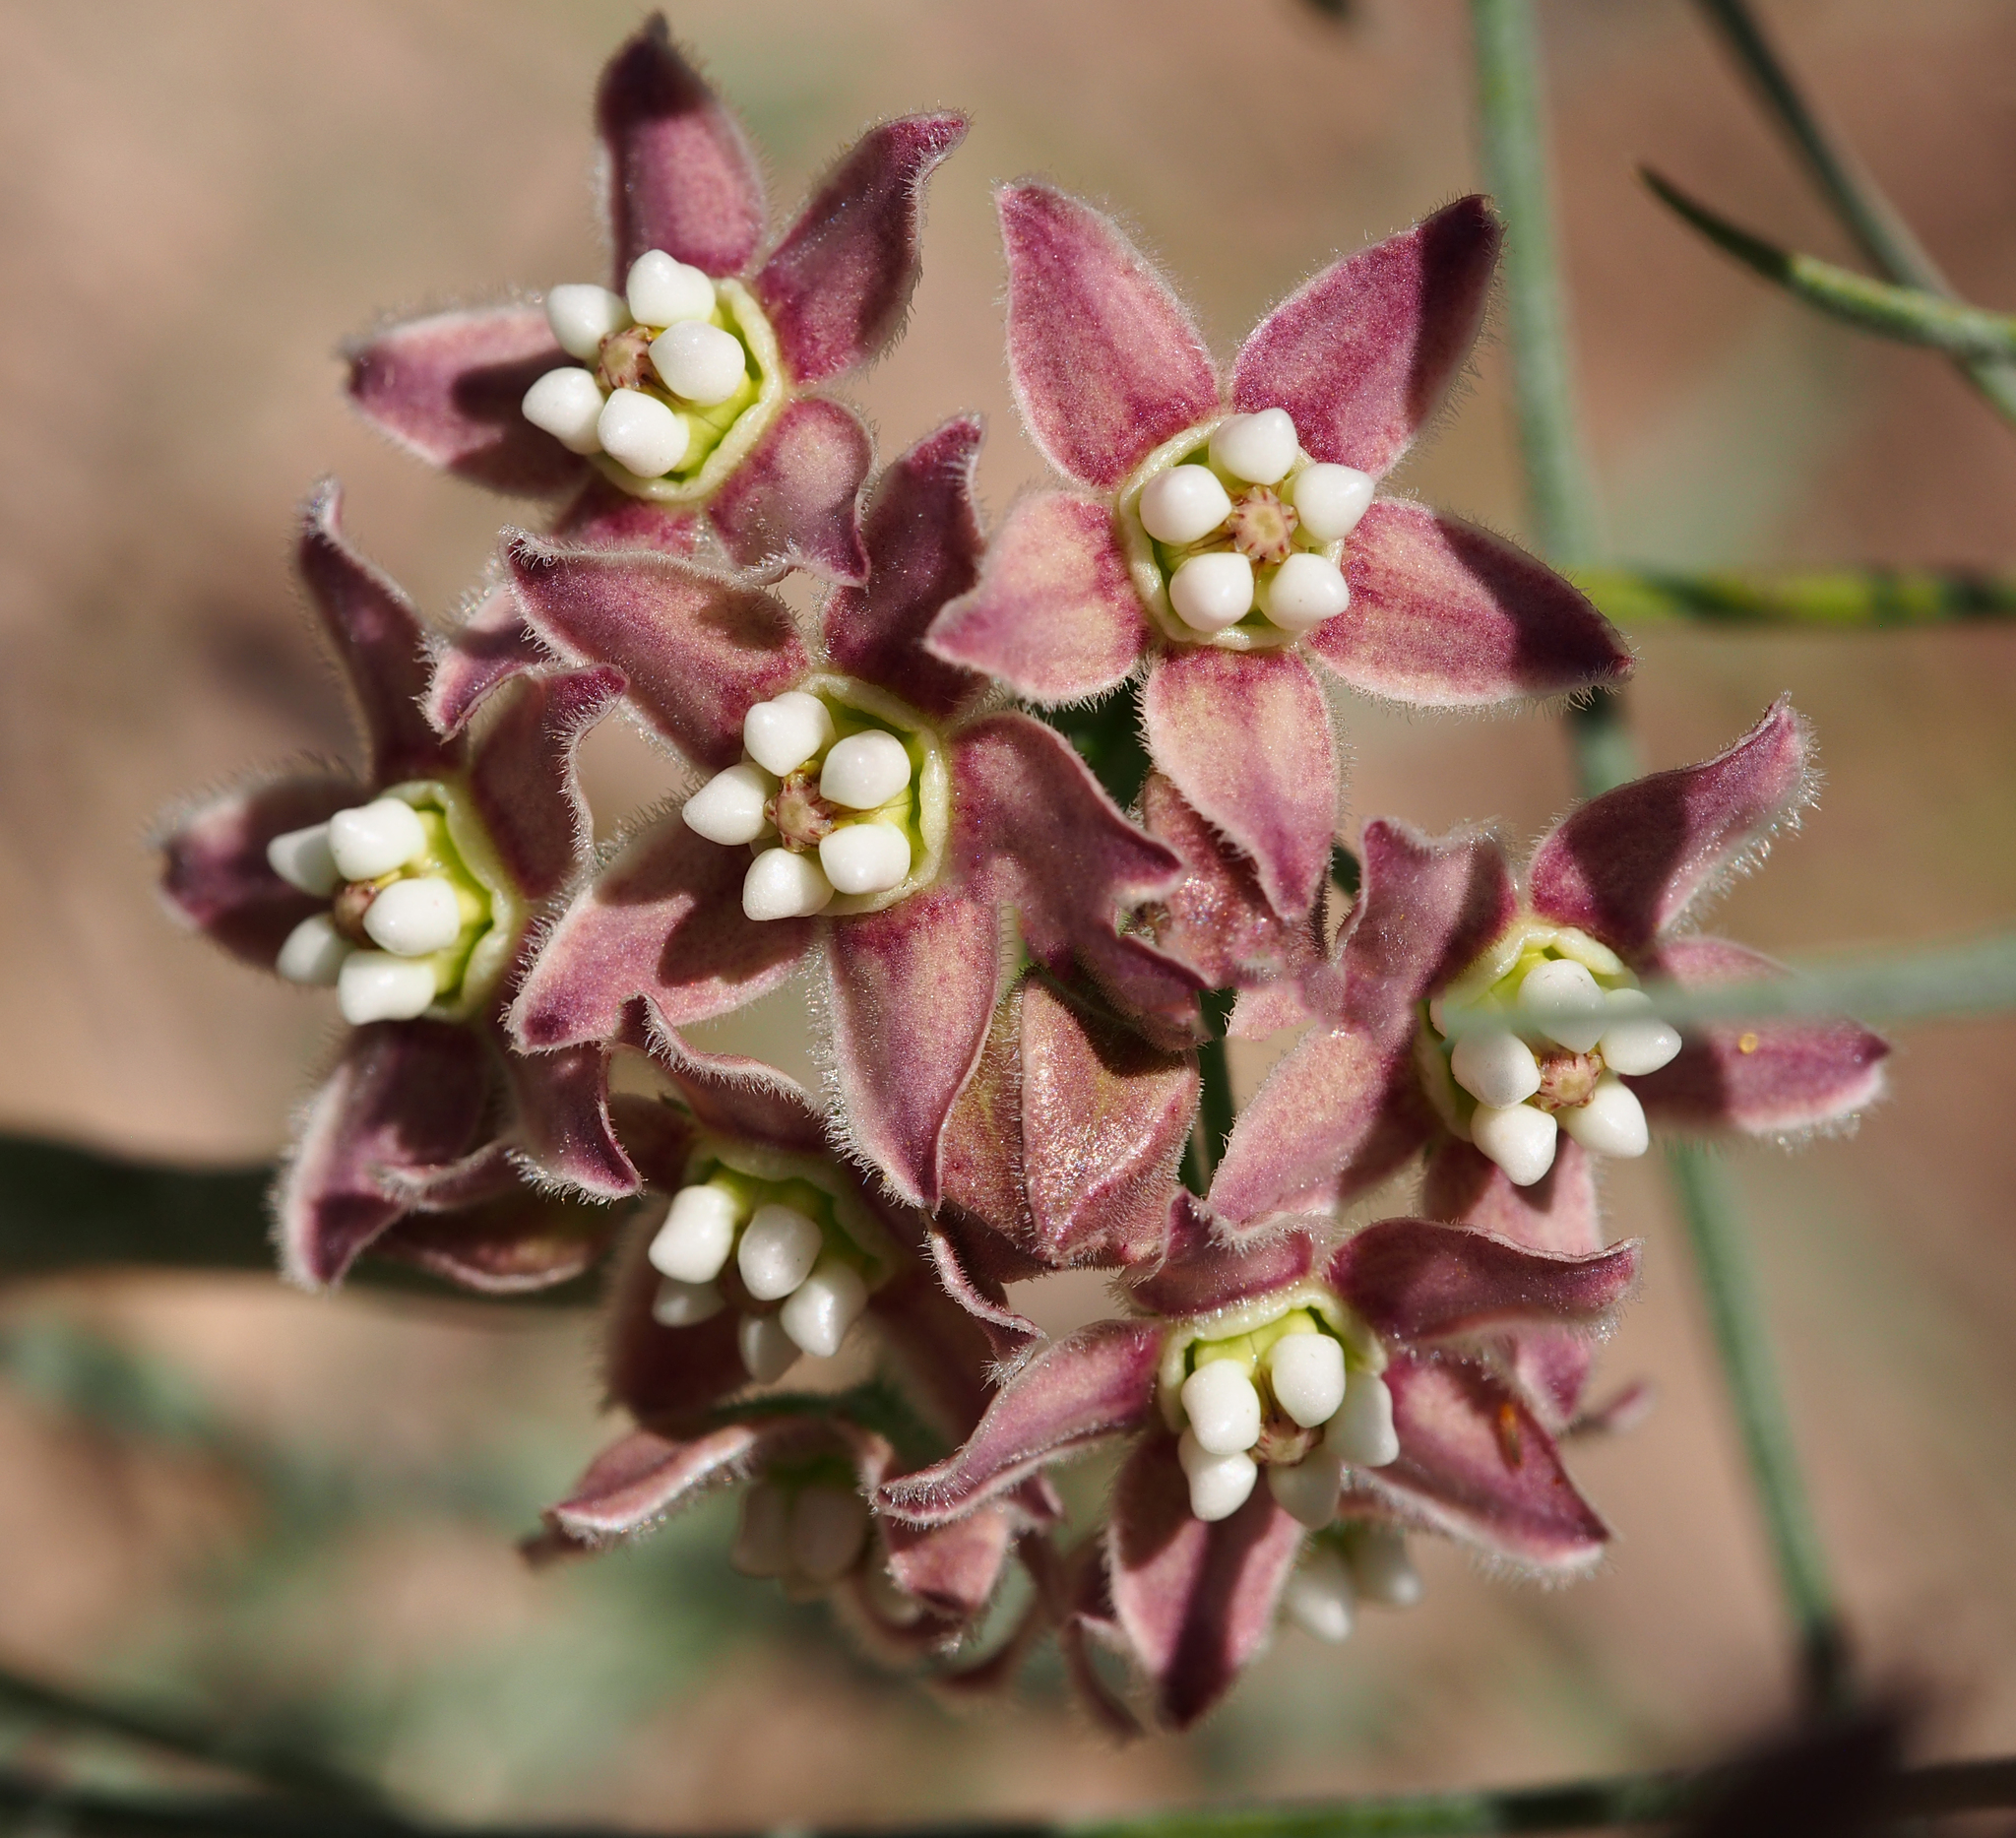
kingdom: Plantae
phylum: Tracheophyta
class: Magnoliopsida
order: Gentianales
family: Apocynaceae
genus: Funastrum
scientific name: Funastrum heterophyllum
